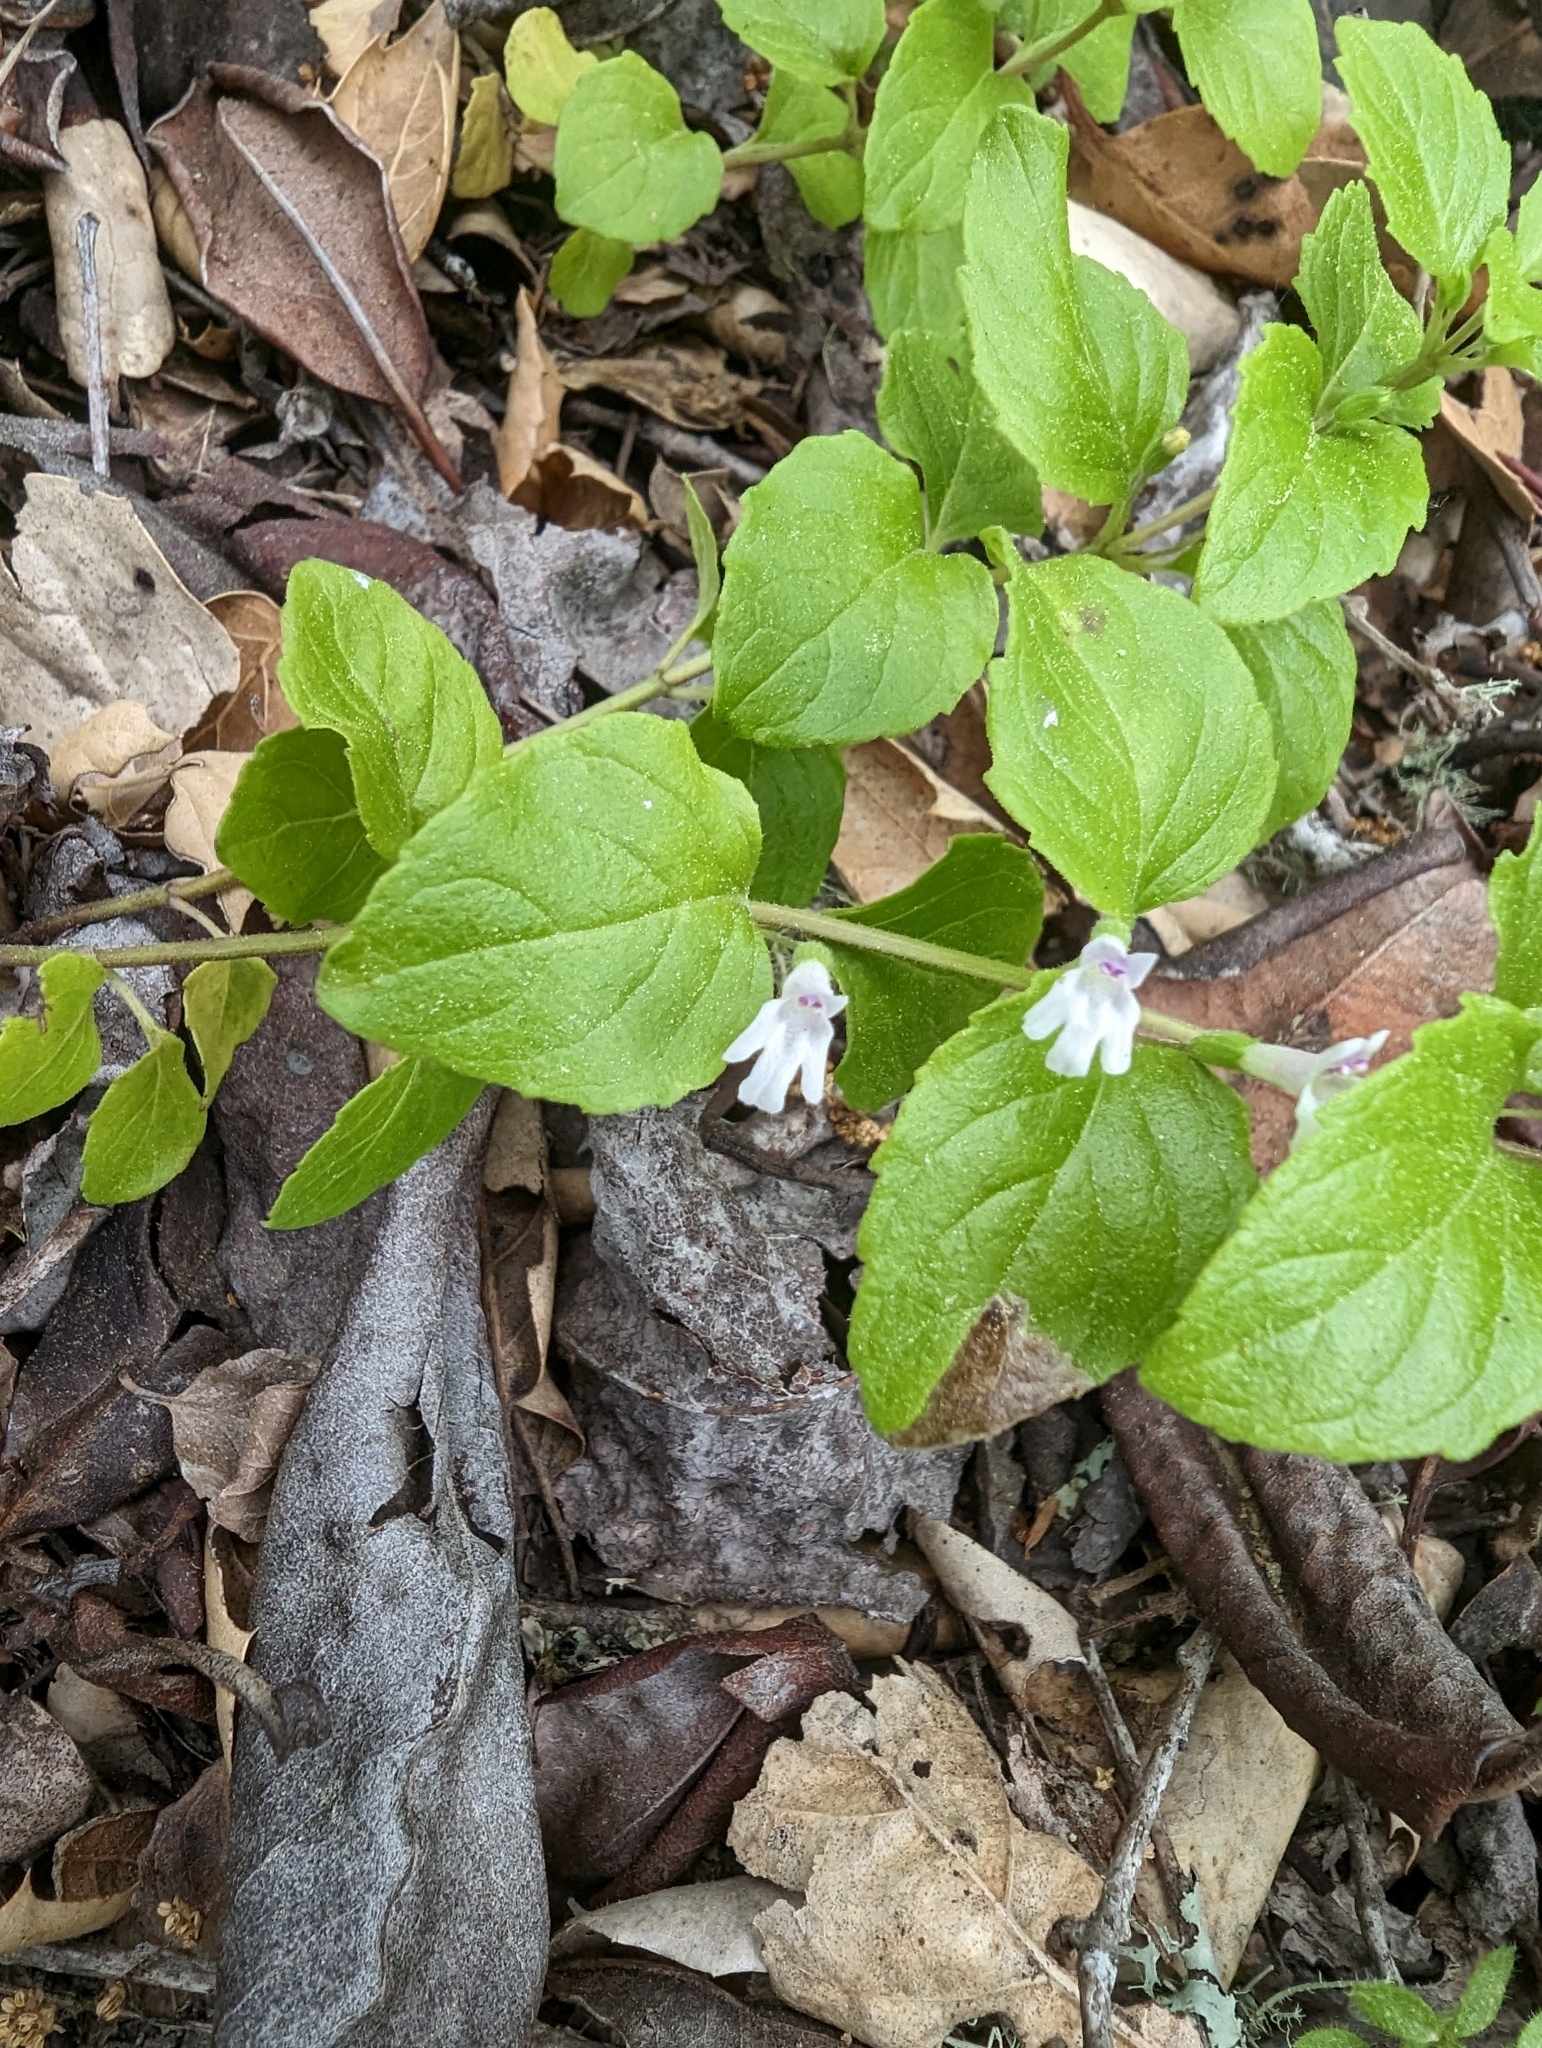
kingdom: Plantae
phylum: Tracheophyta
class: Magnoliopsida
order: Lamiales
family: Lamiaceae
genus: Micromeria
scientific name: Micromeria douglasii
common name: Yerba buena
